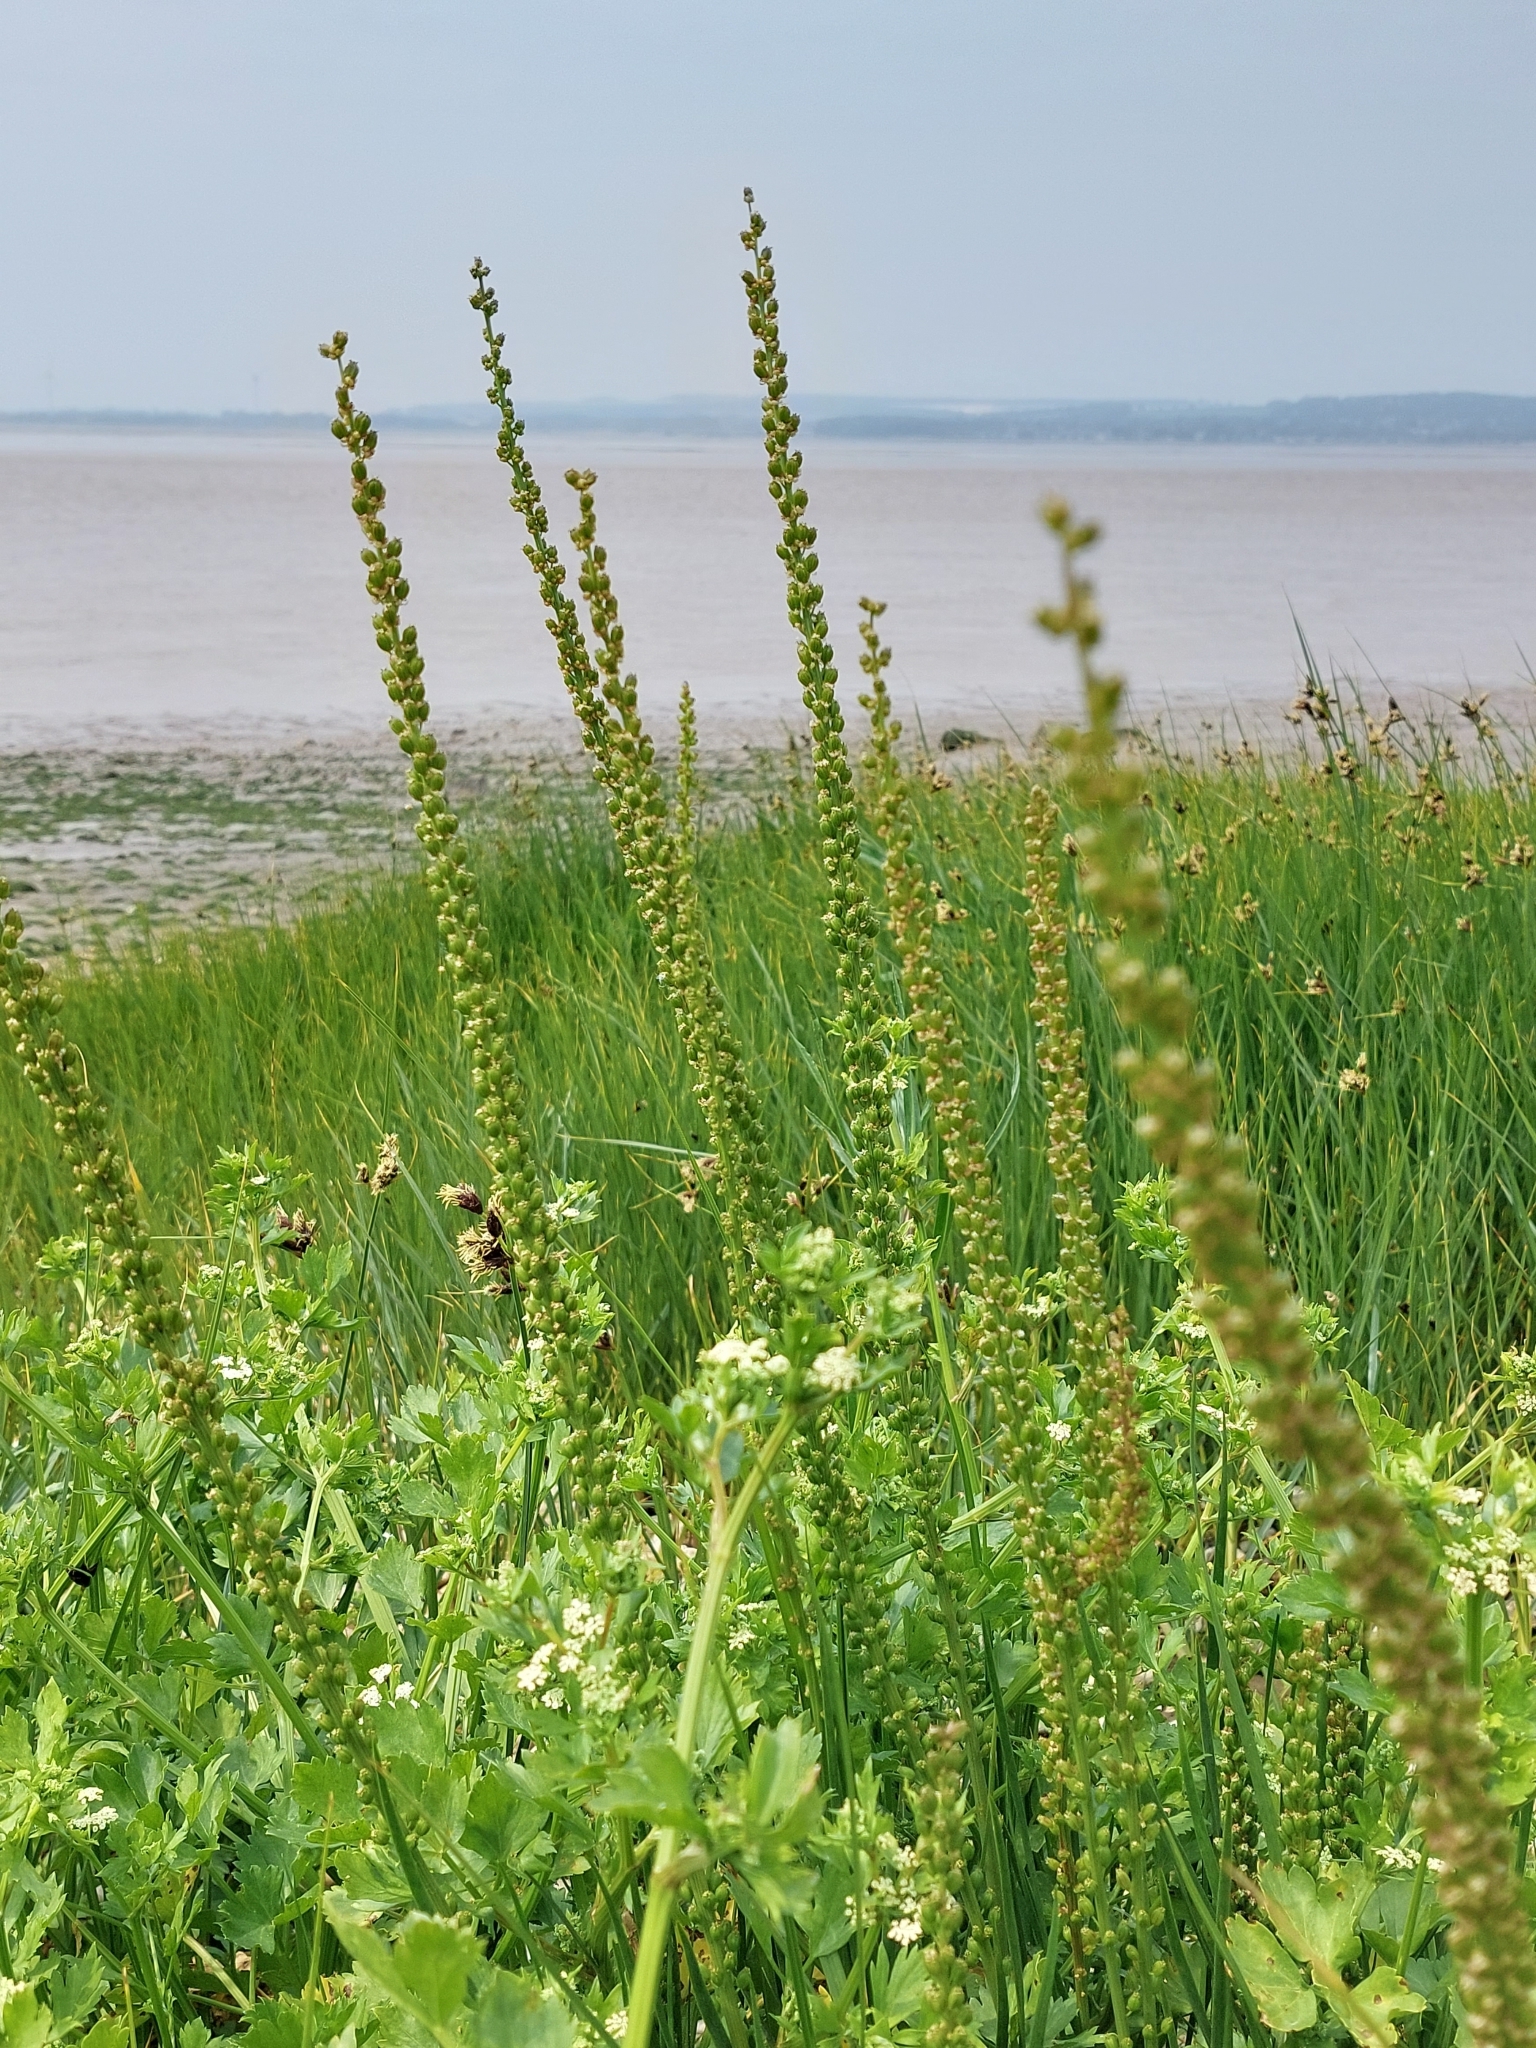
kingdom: Plantae
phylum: Tracheophyta
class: Liliopsida
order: Alismatales
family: Juncaginaceae
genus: Triglochin
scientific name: Triglochin maritima
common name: Sea arrowgrass
